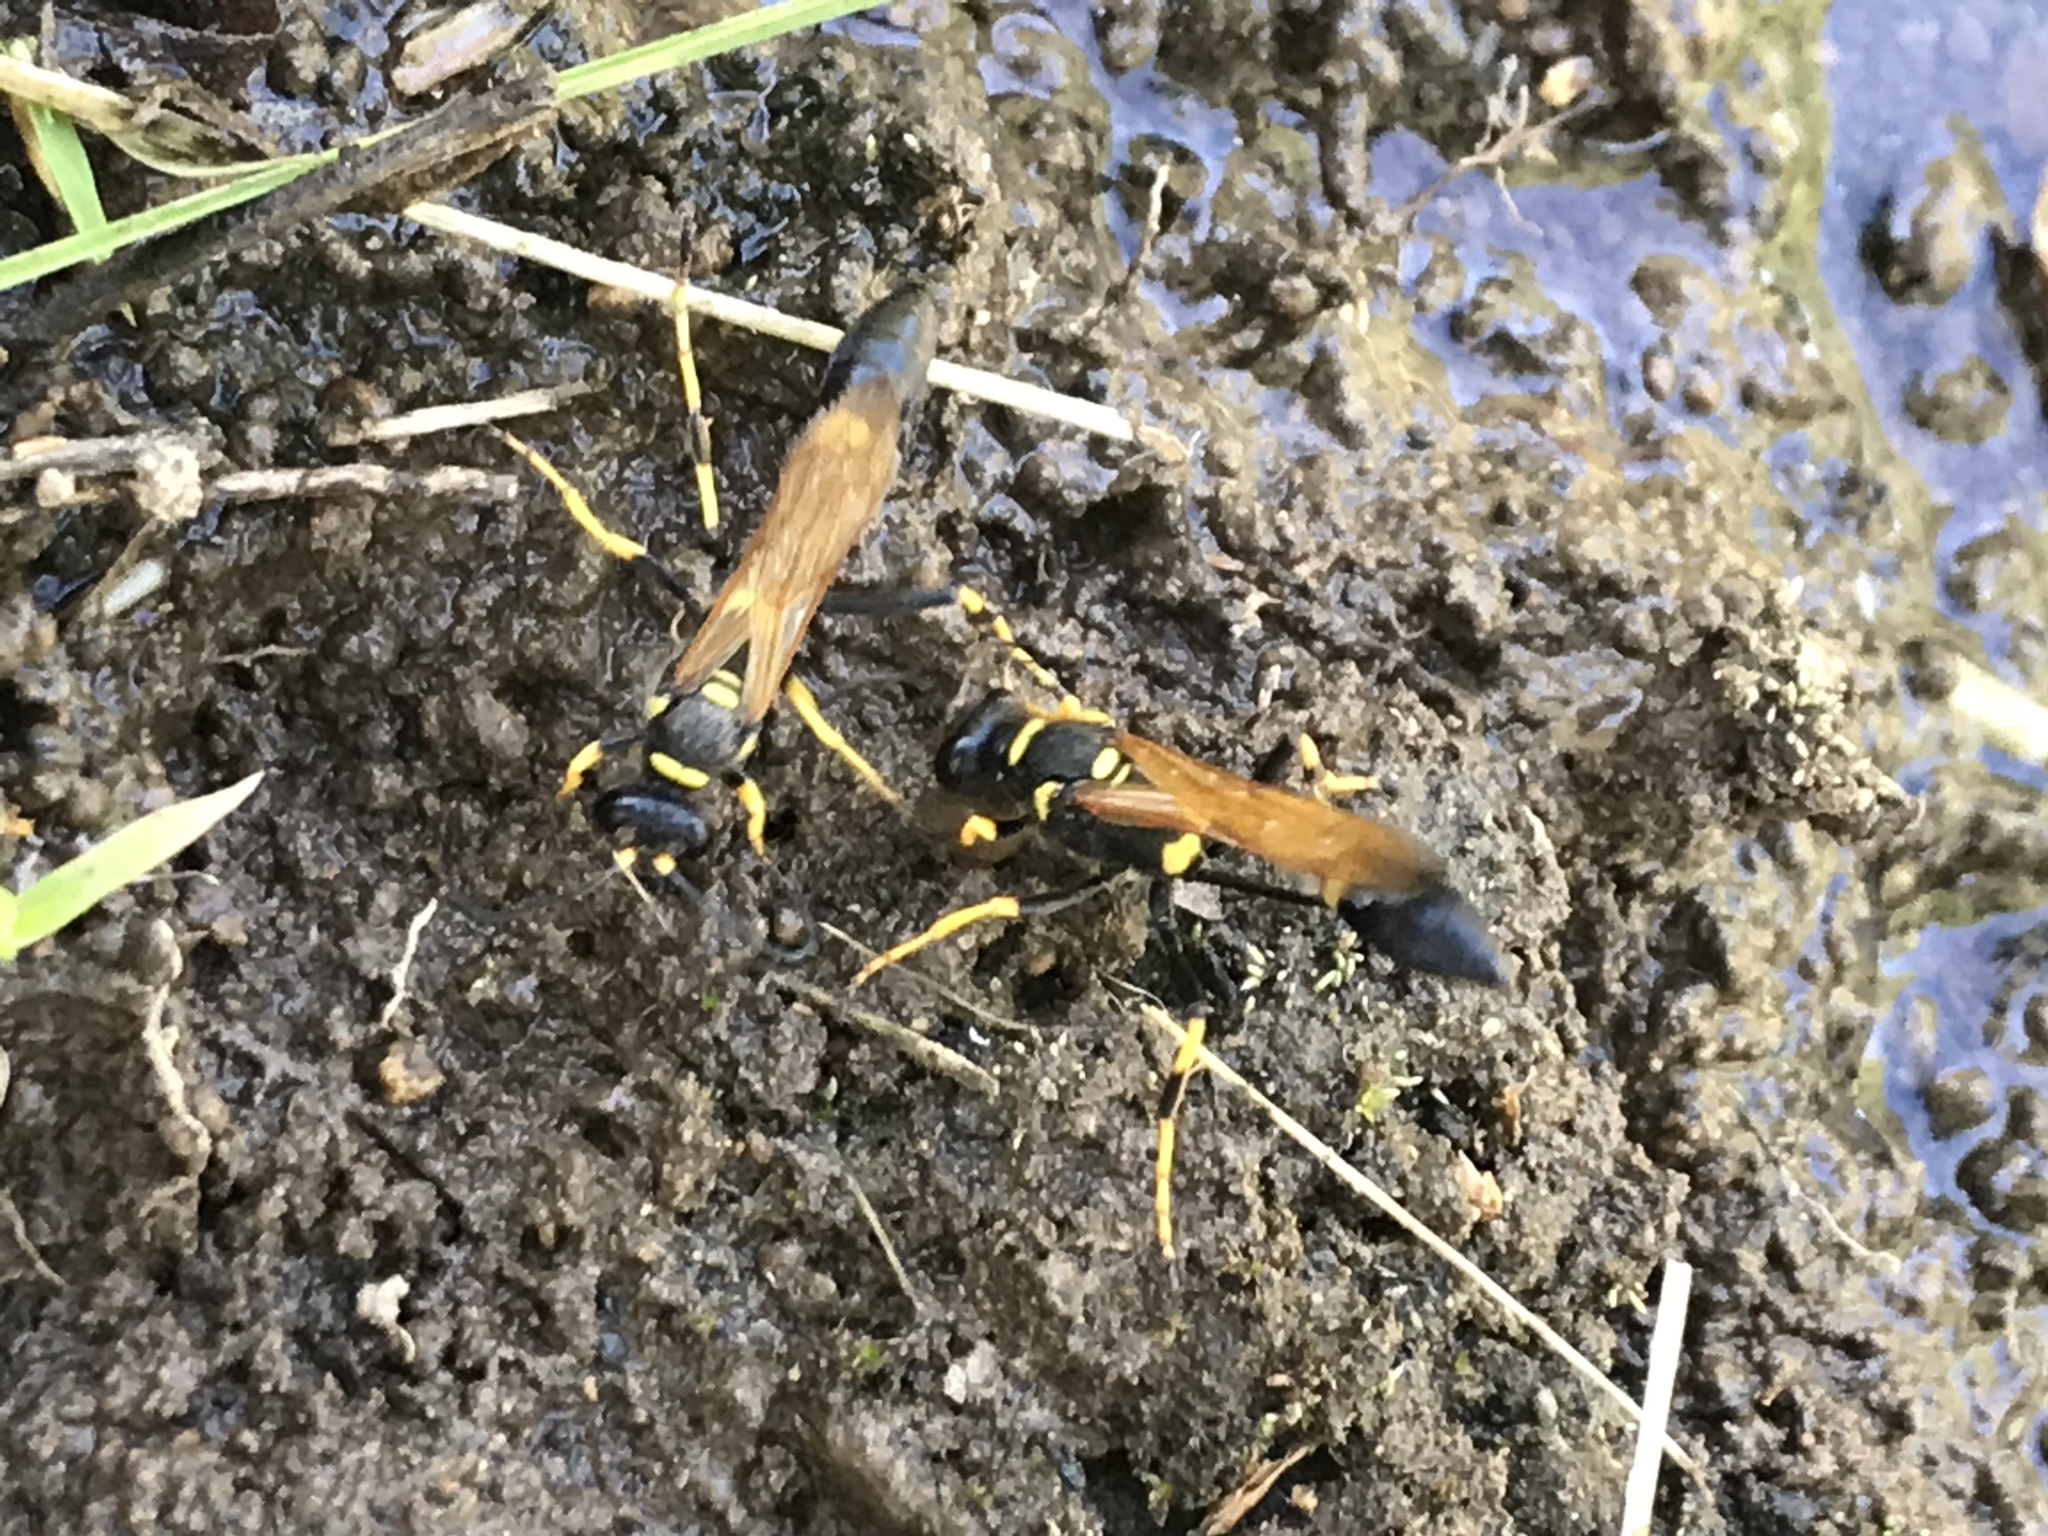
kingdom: Animalia
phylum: Arthropoda
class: Insecta
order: Hymenoptera
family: Sphecidae
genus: Sceliphron
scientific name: Sceliphron caementarium
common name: Mud dauber
